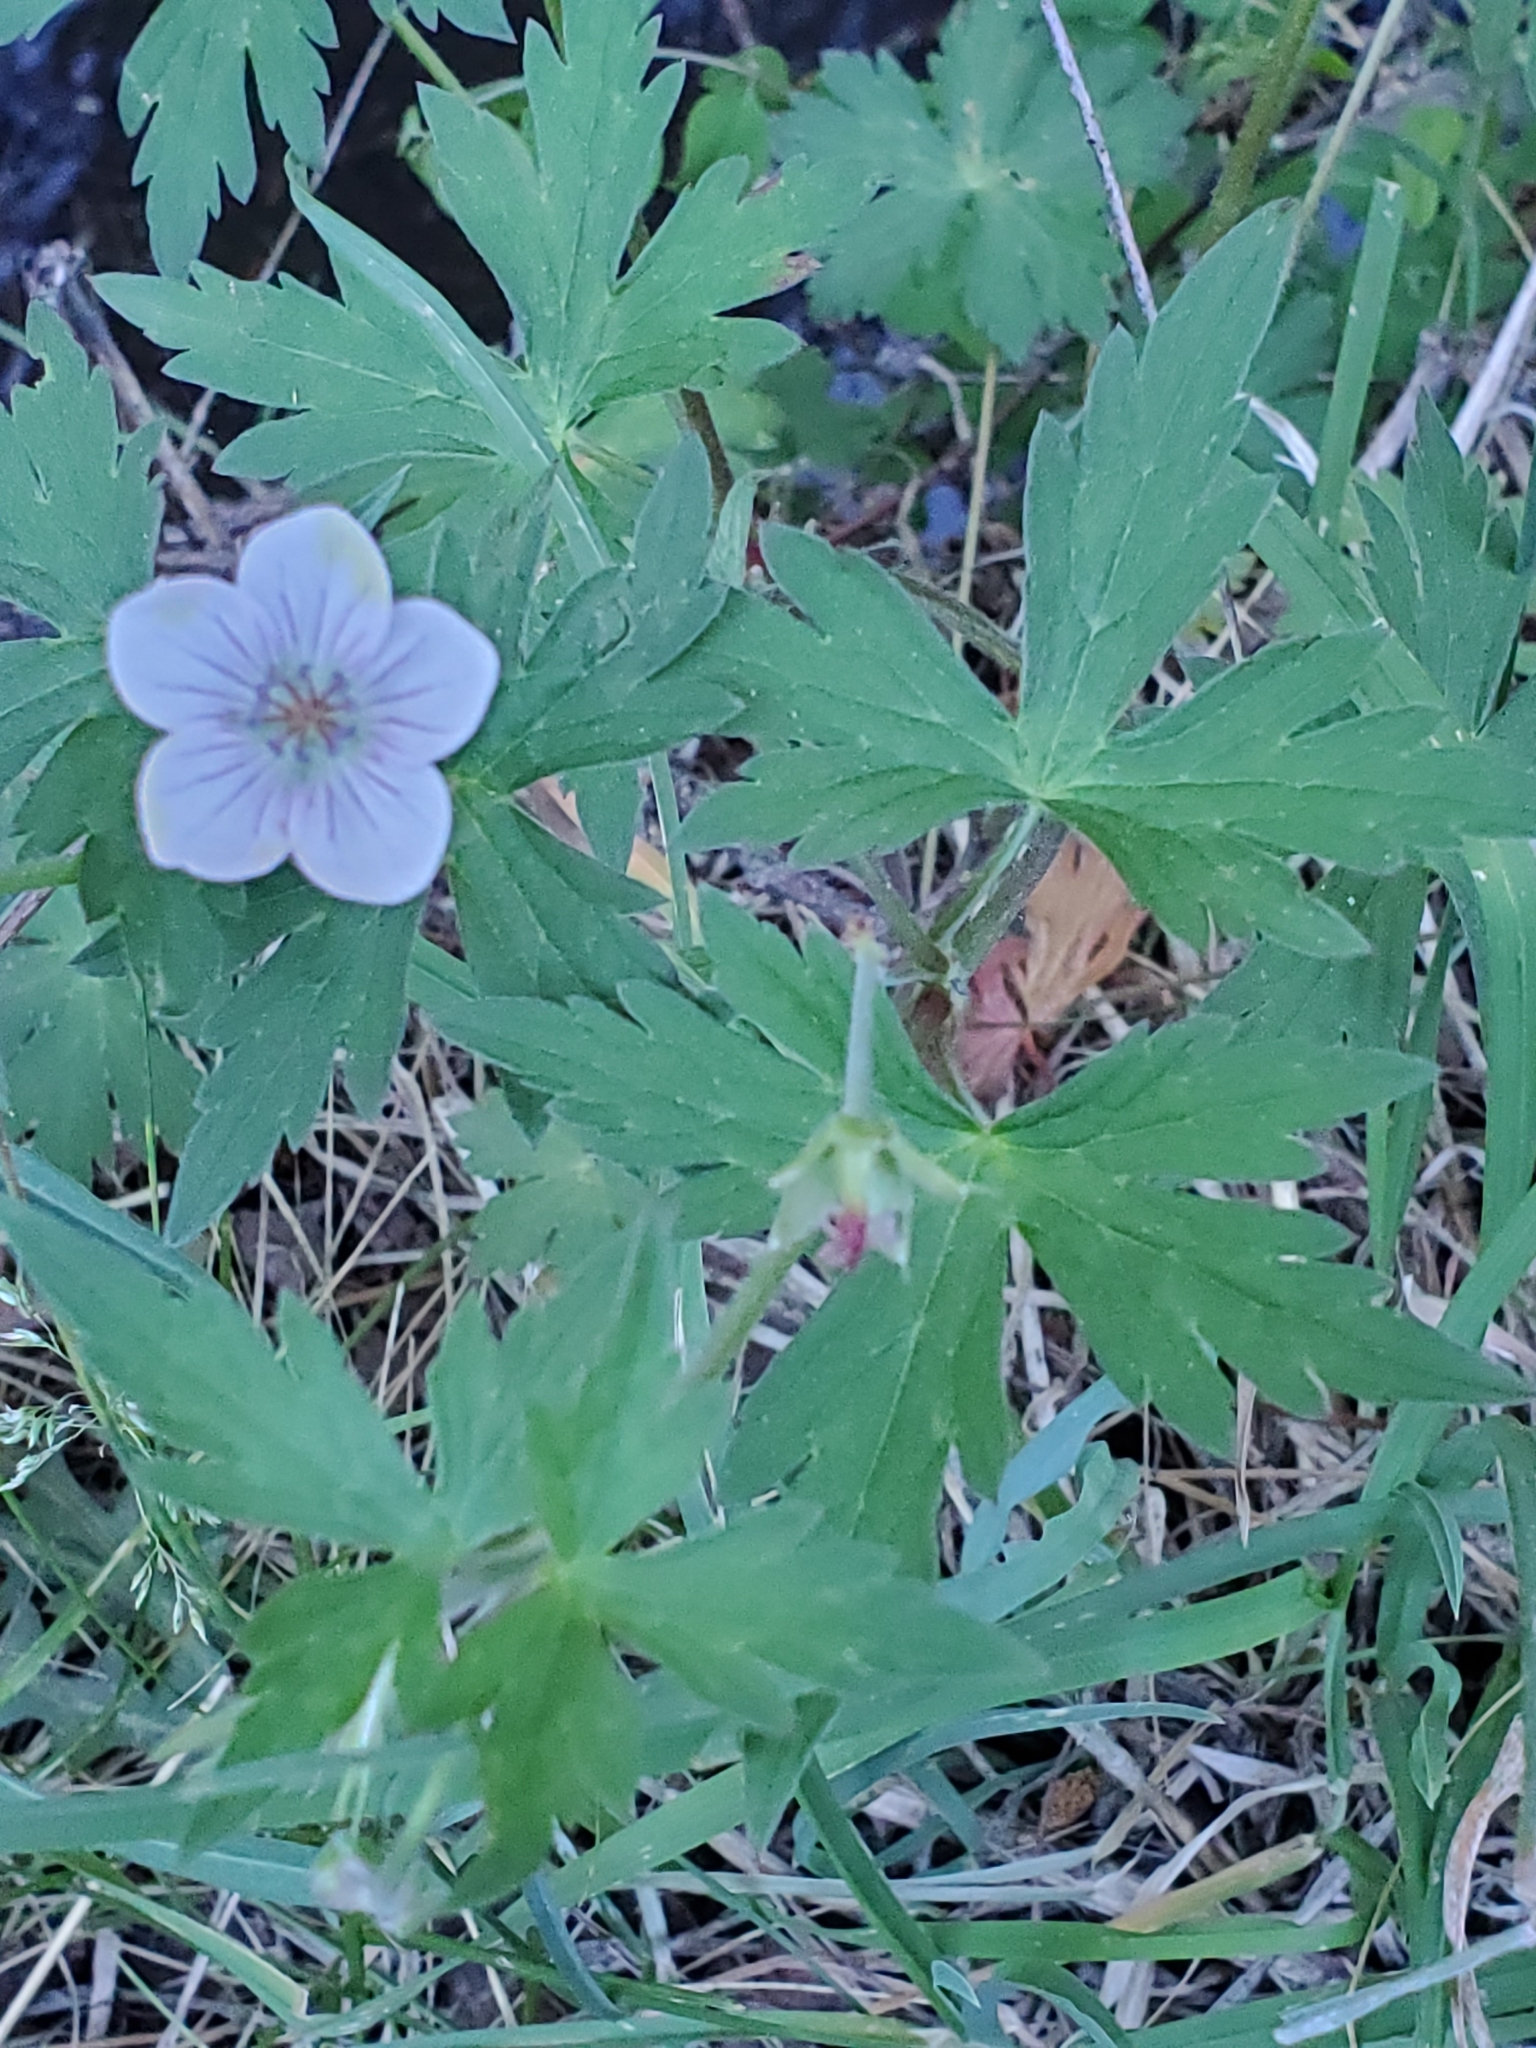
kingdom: Plantae
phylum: Tracheophyta
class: Magnoliopsida
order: Geraniales
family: Geraniaceae
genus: Geranium
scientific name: Geranium richardsonii
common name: Richardson's crane's-bill
